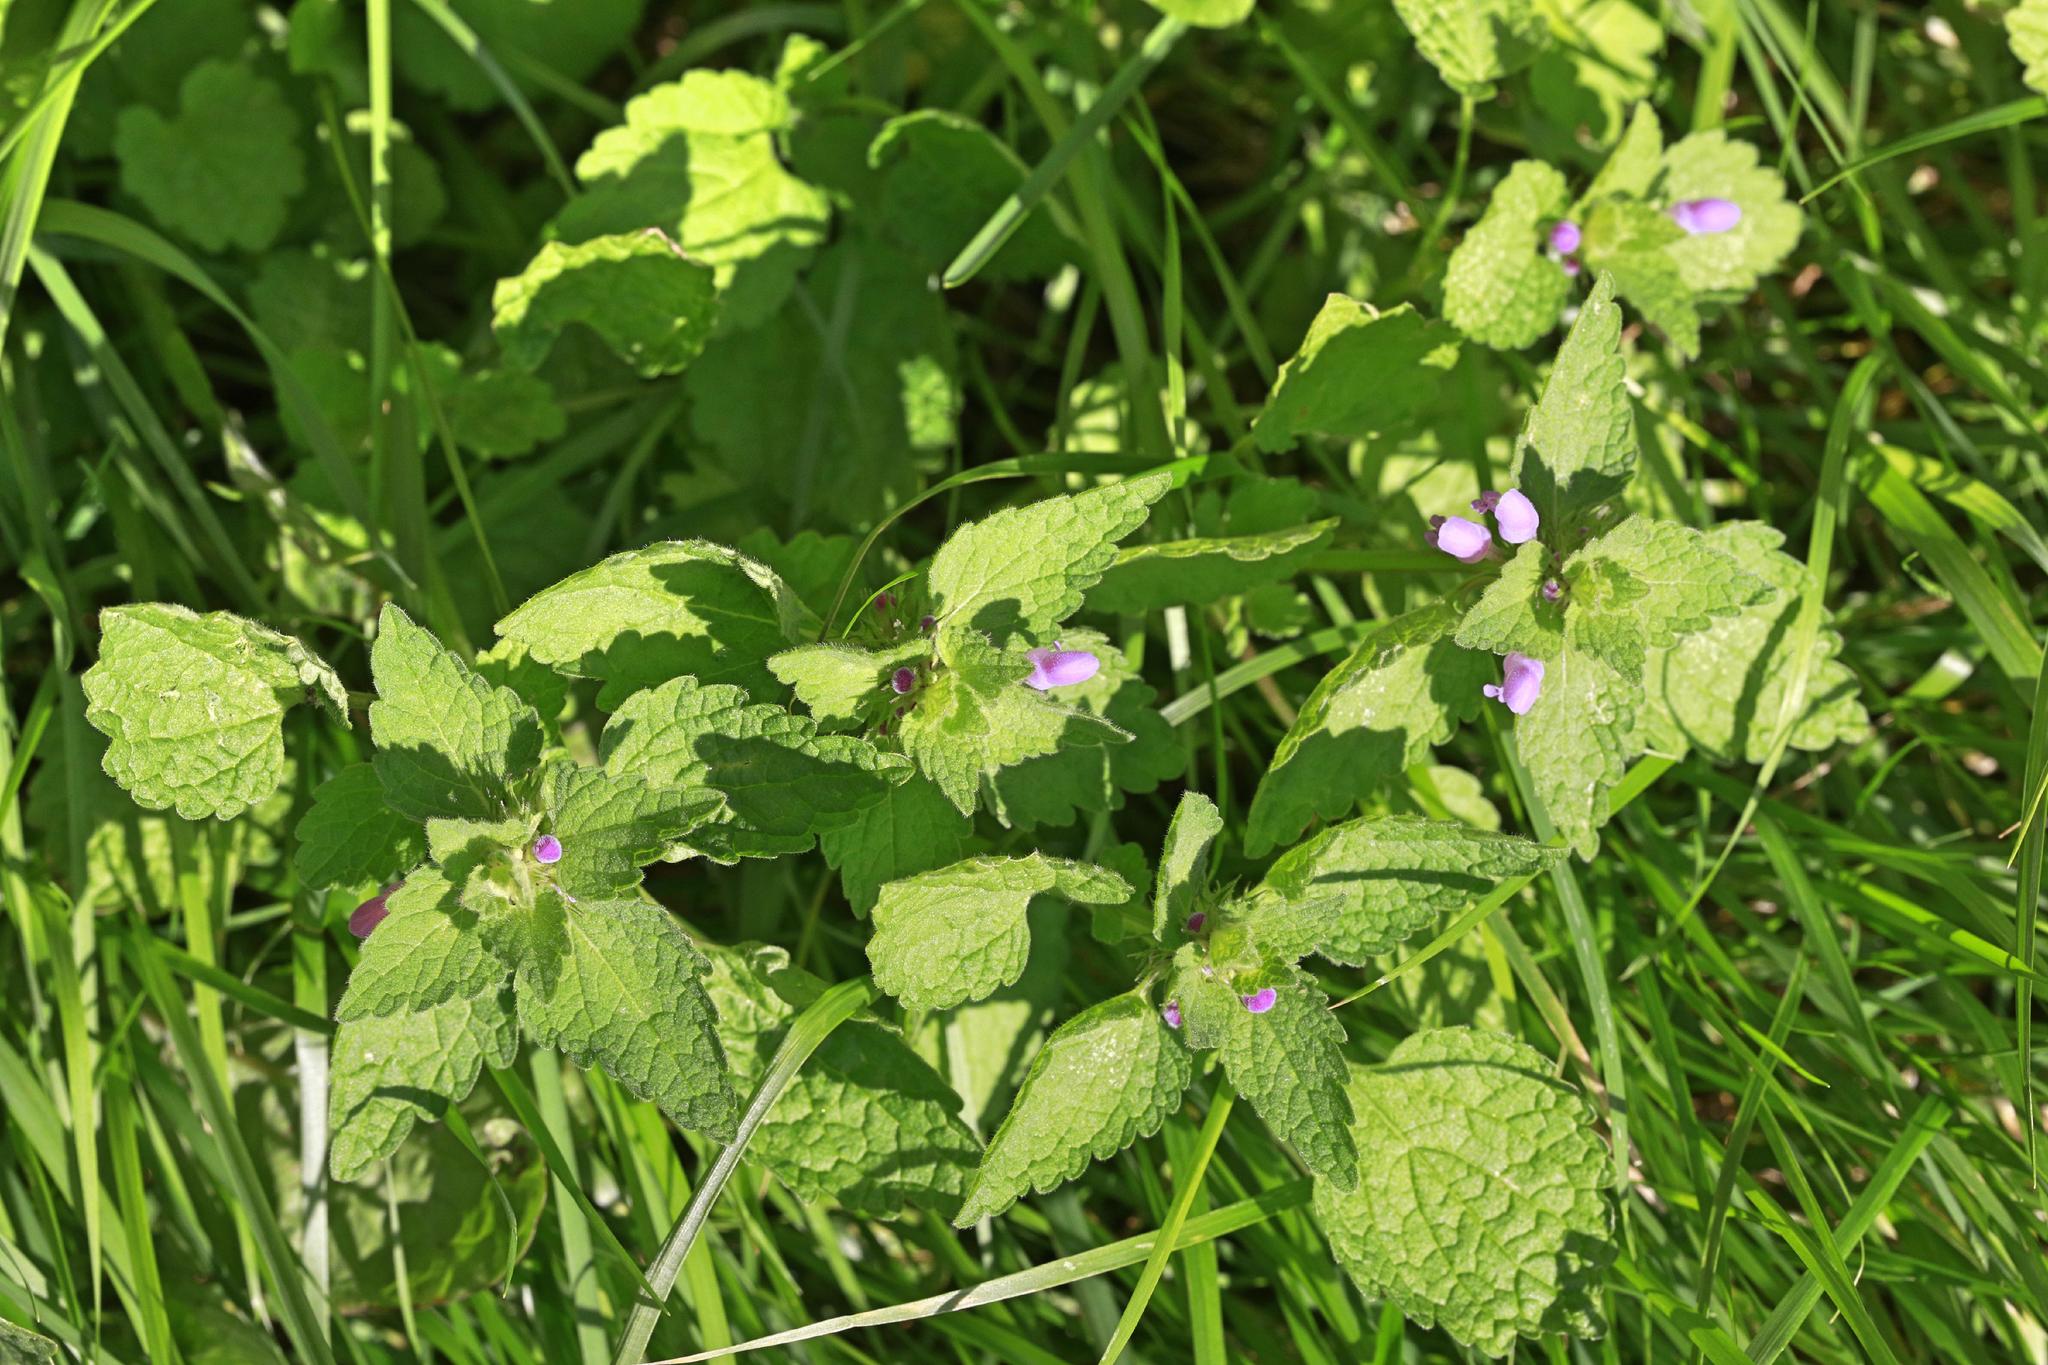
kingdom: Plantae
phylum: Tracheophyta
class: Magnoliopsida
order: Lamiales
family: Lamiaceae
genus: Lamium
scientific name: Lamium purpureum
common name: Red dead-nettle
